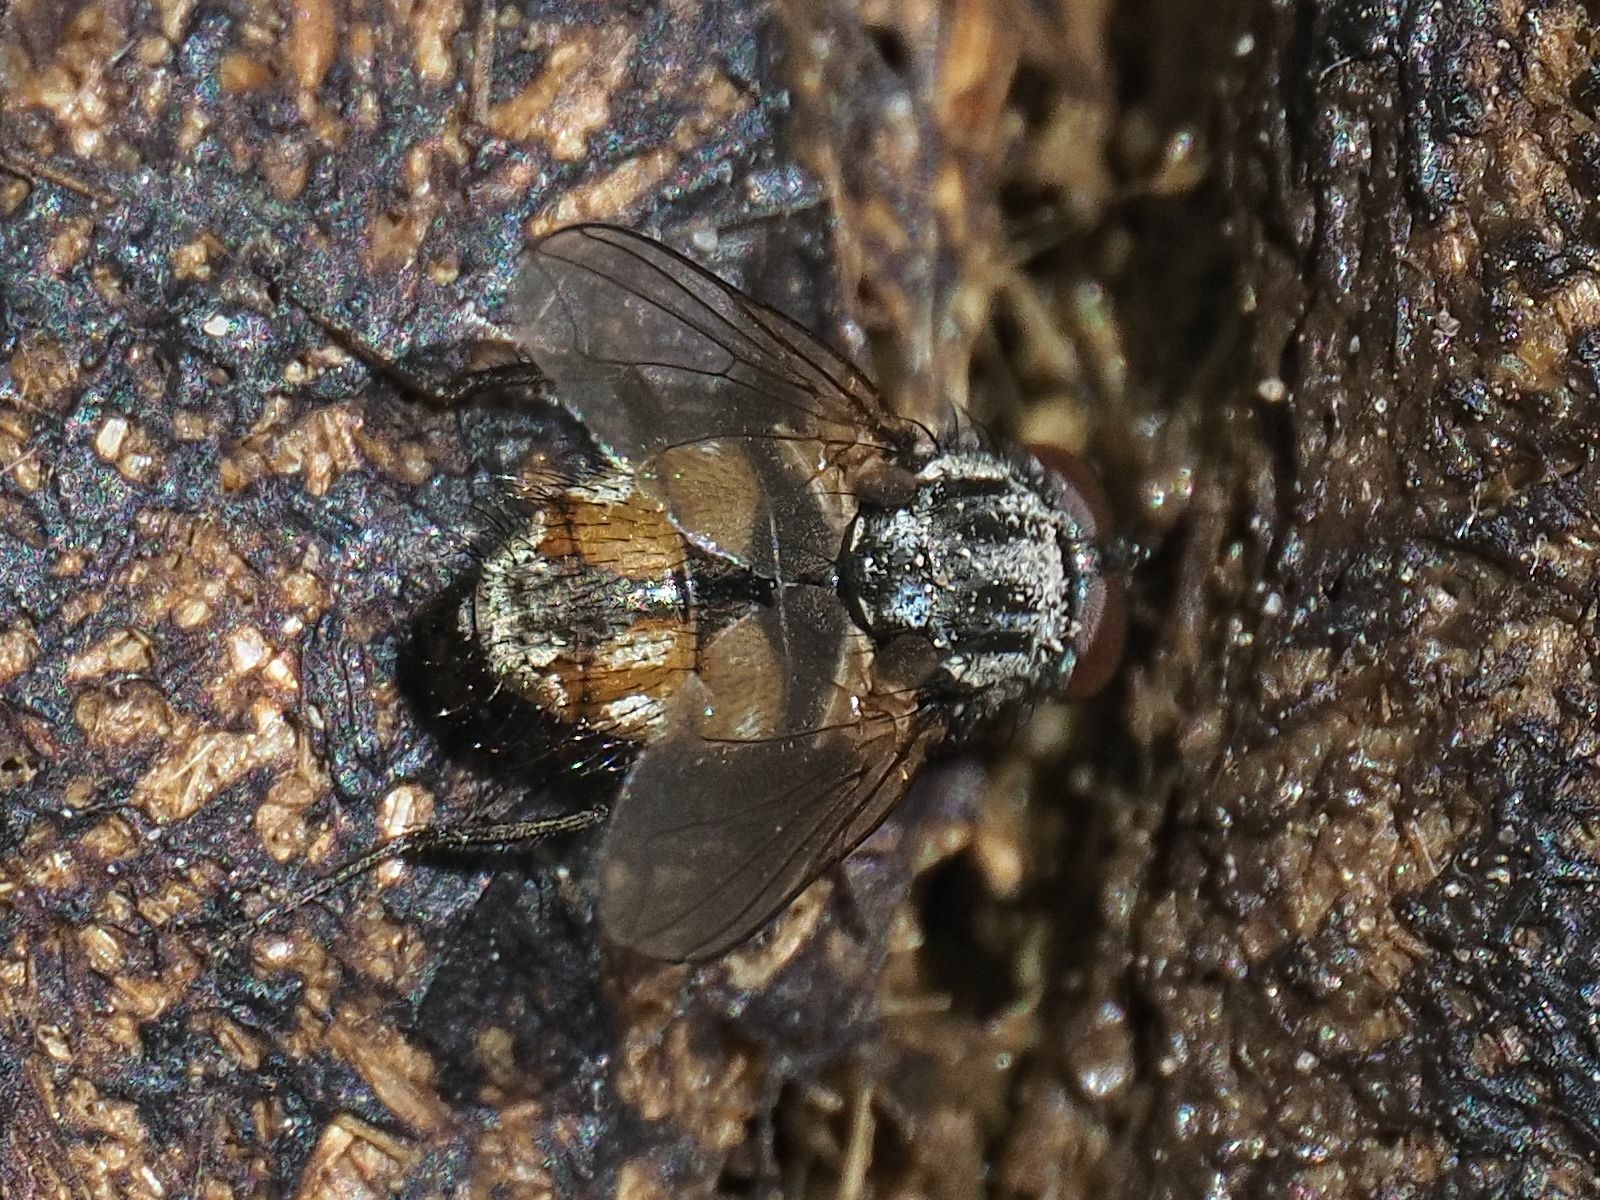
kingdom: Animalia
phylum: Arthropoda
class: Insecta
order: Diptera
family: Muscidae
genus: Musca
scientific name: Musca autumnalis
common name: Face fly
